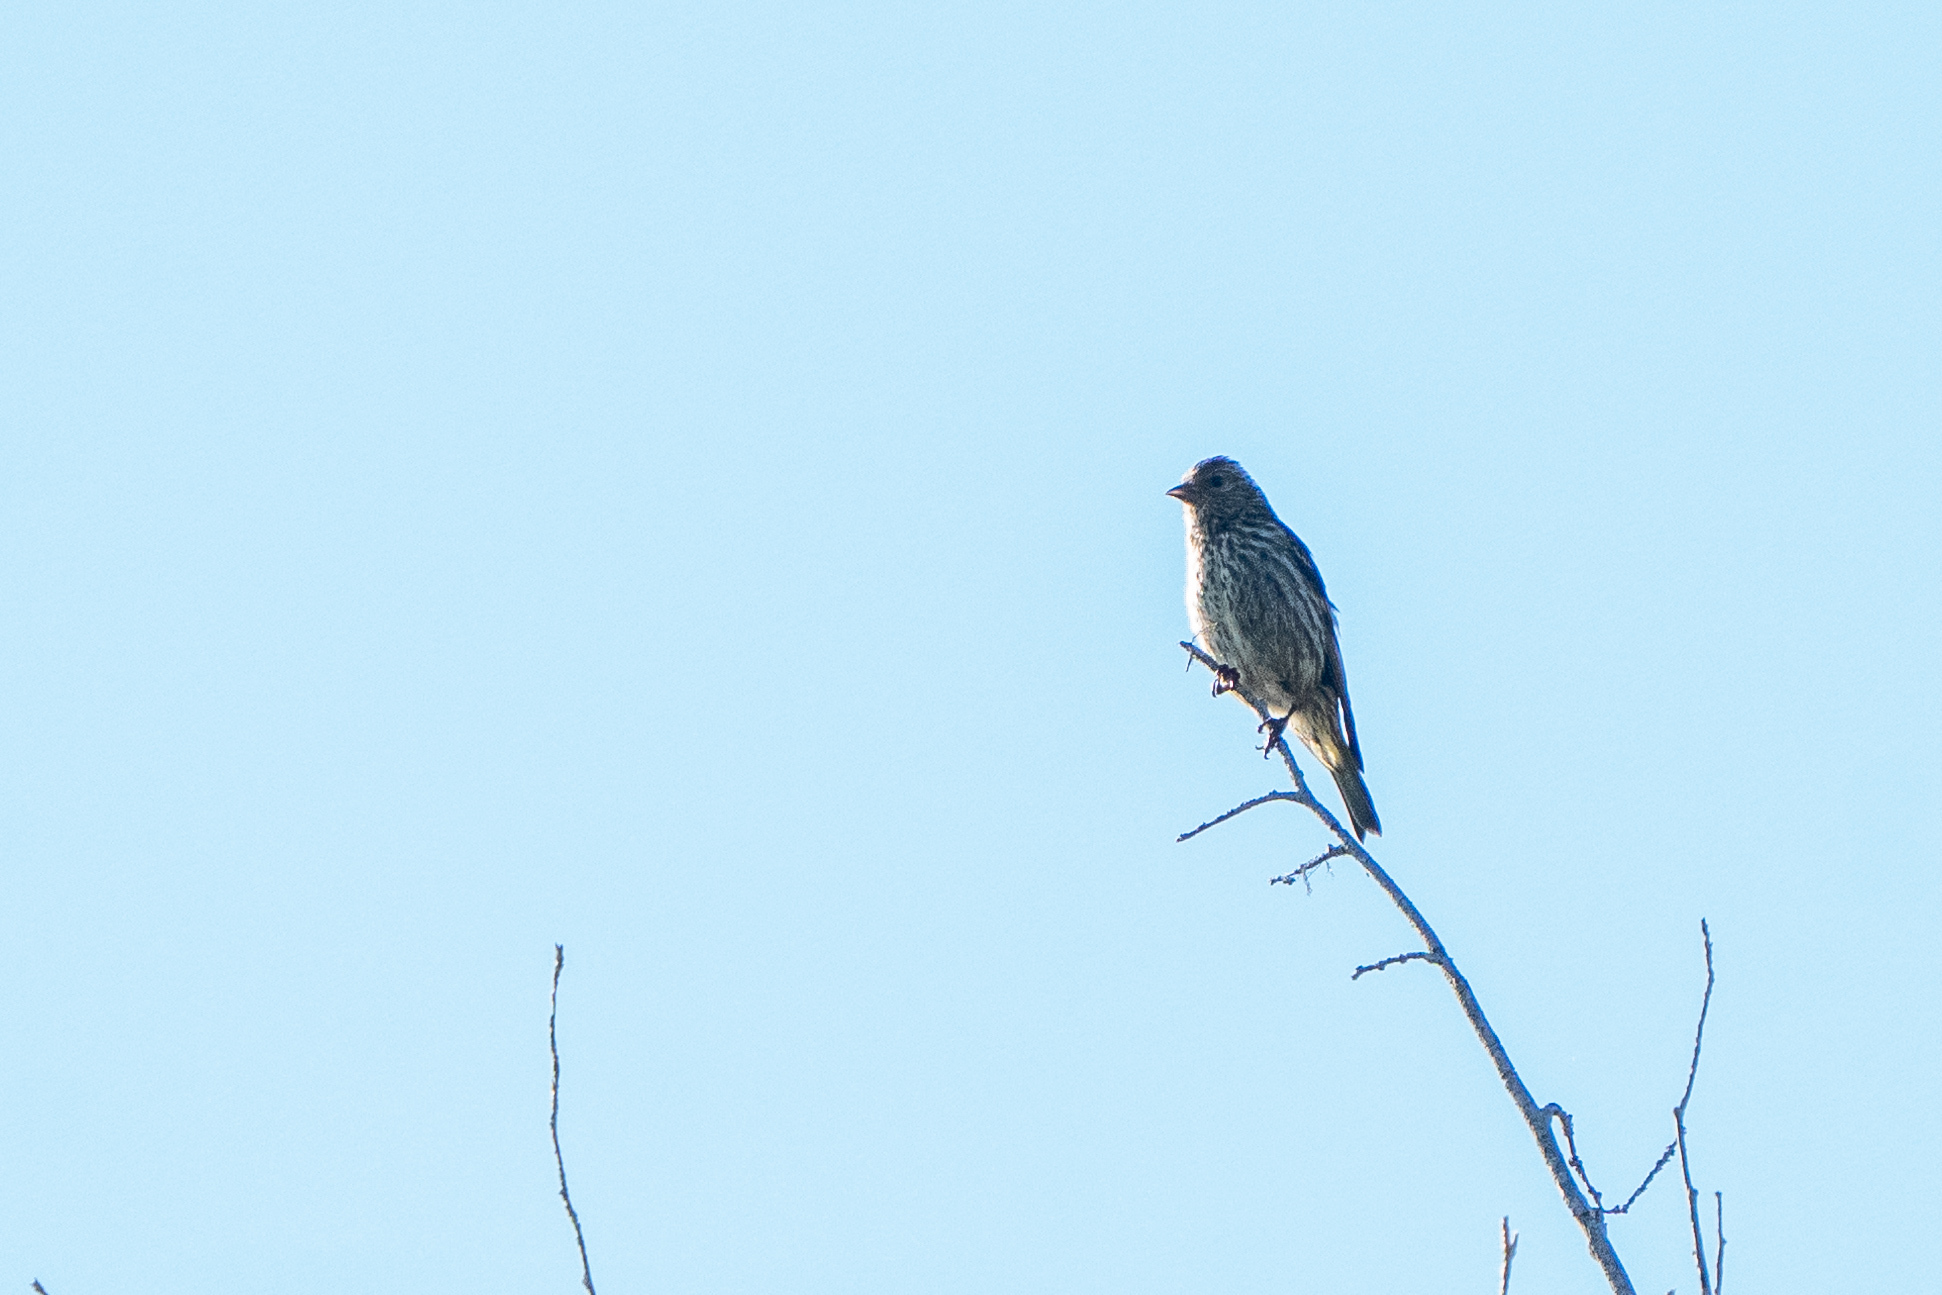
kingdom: Animalia
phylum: Chordata
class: Aves
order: Passeriformes
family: Fringillidae
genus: Spinus
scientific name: Spinus pinus
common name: Pine siskin
